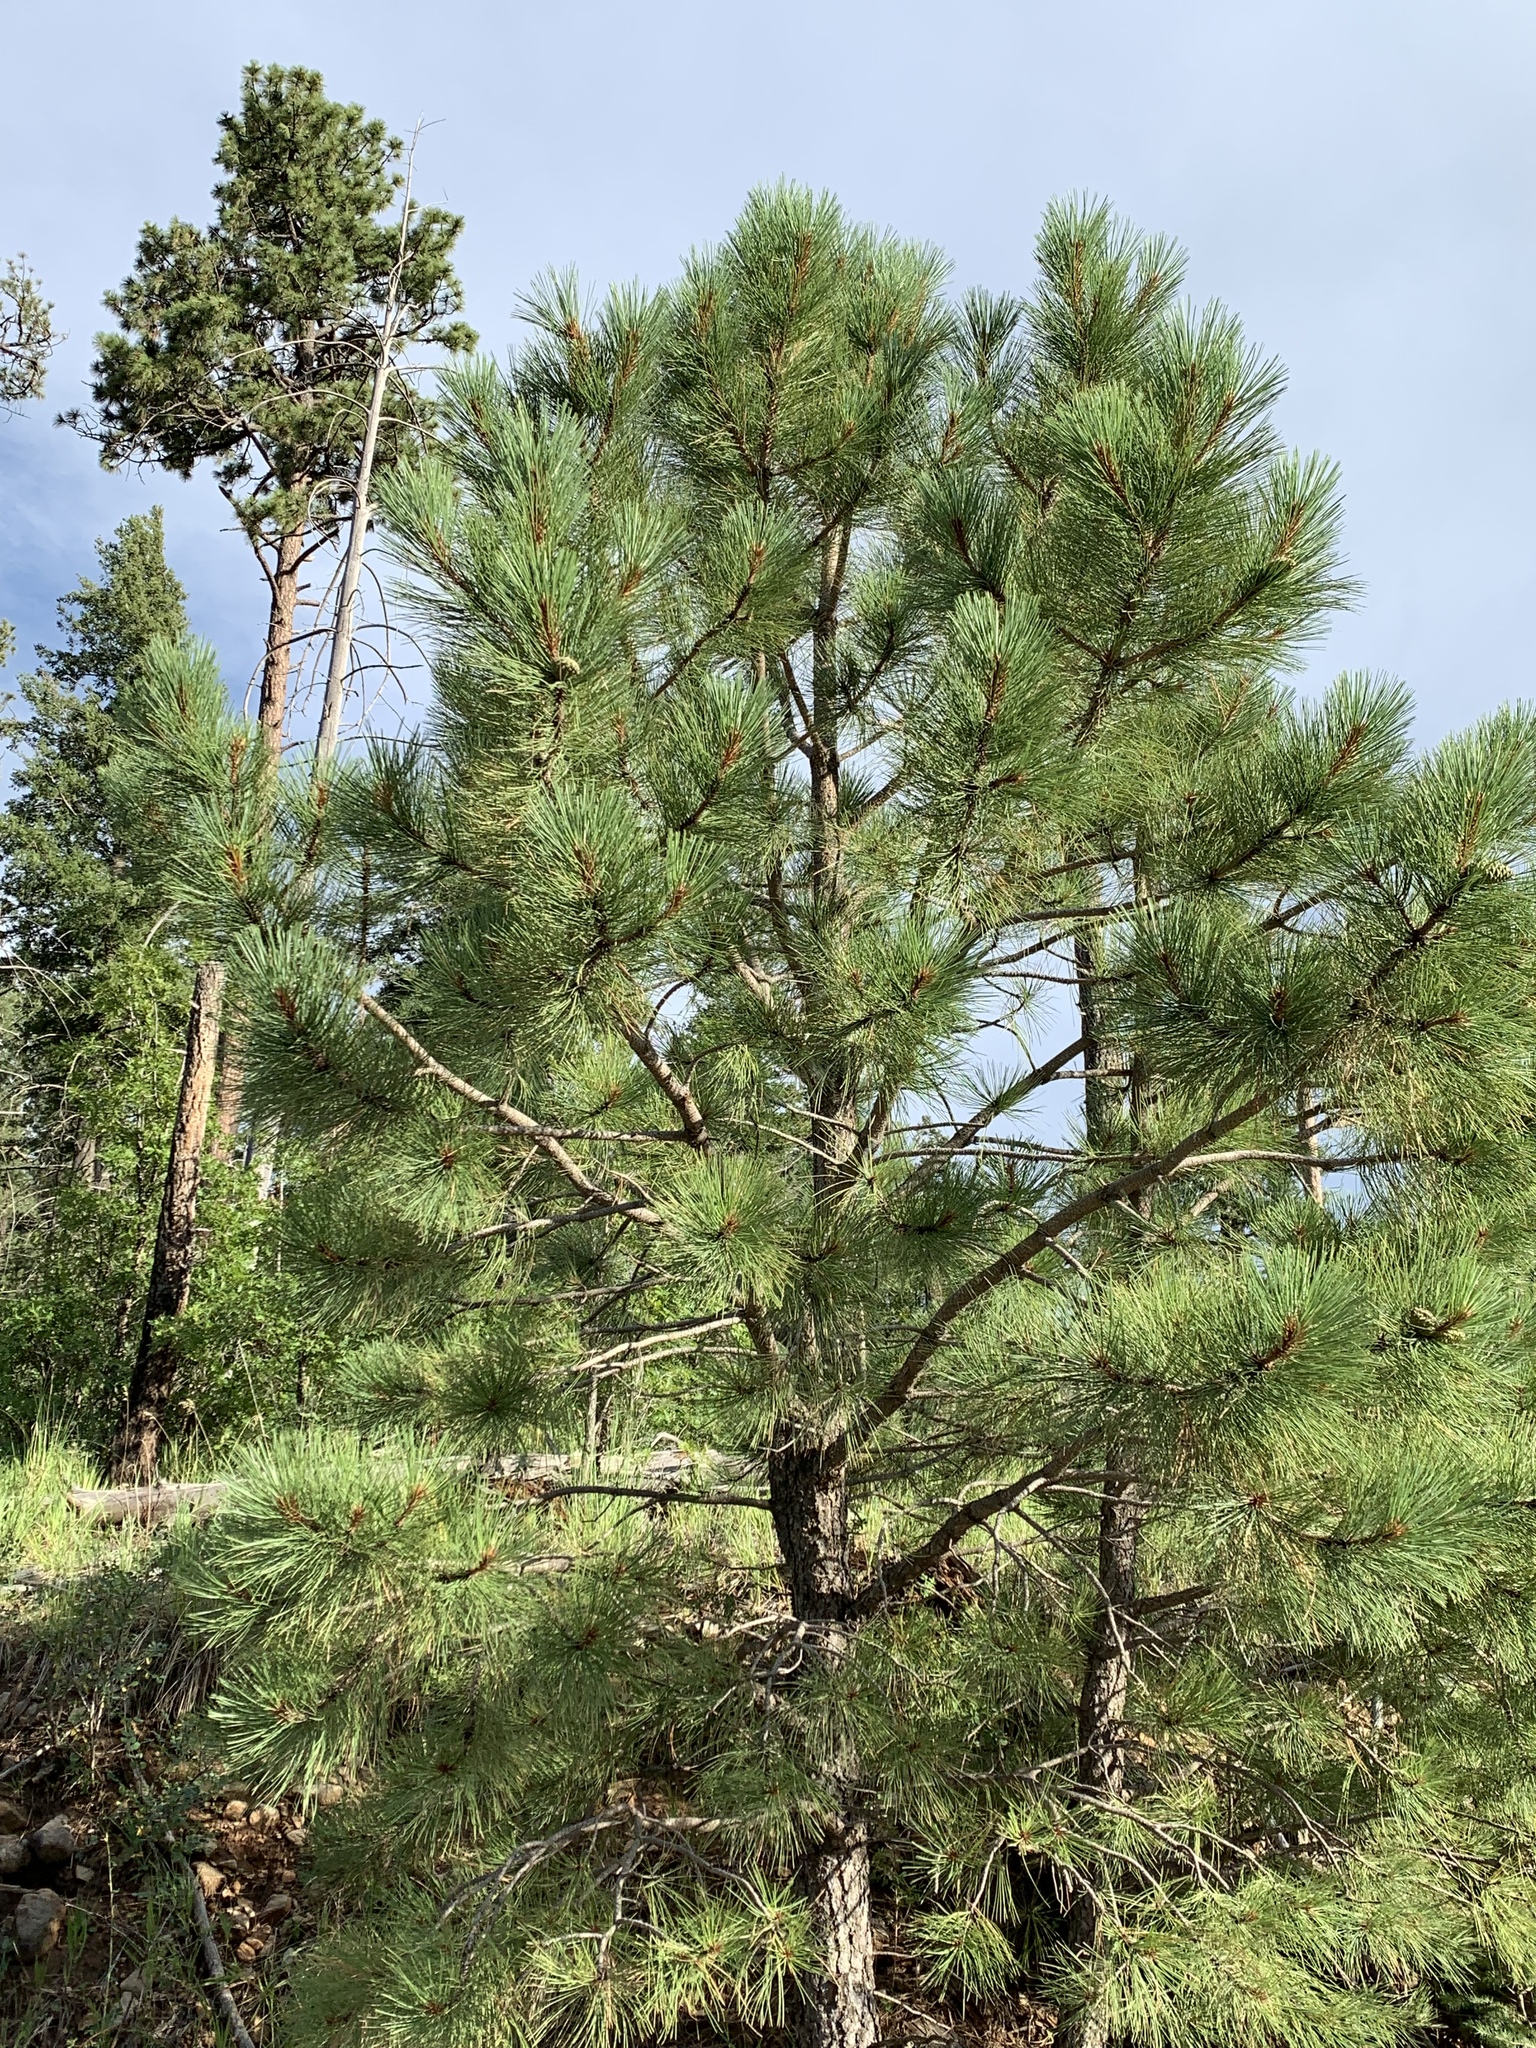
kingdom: Plantae
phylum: Tracheophyta
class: Pinopsida
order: Pinales
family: Pinaceae
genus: Pinus
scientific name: Pinus ponderosa
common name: Western yellow-pine
